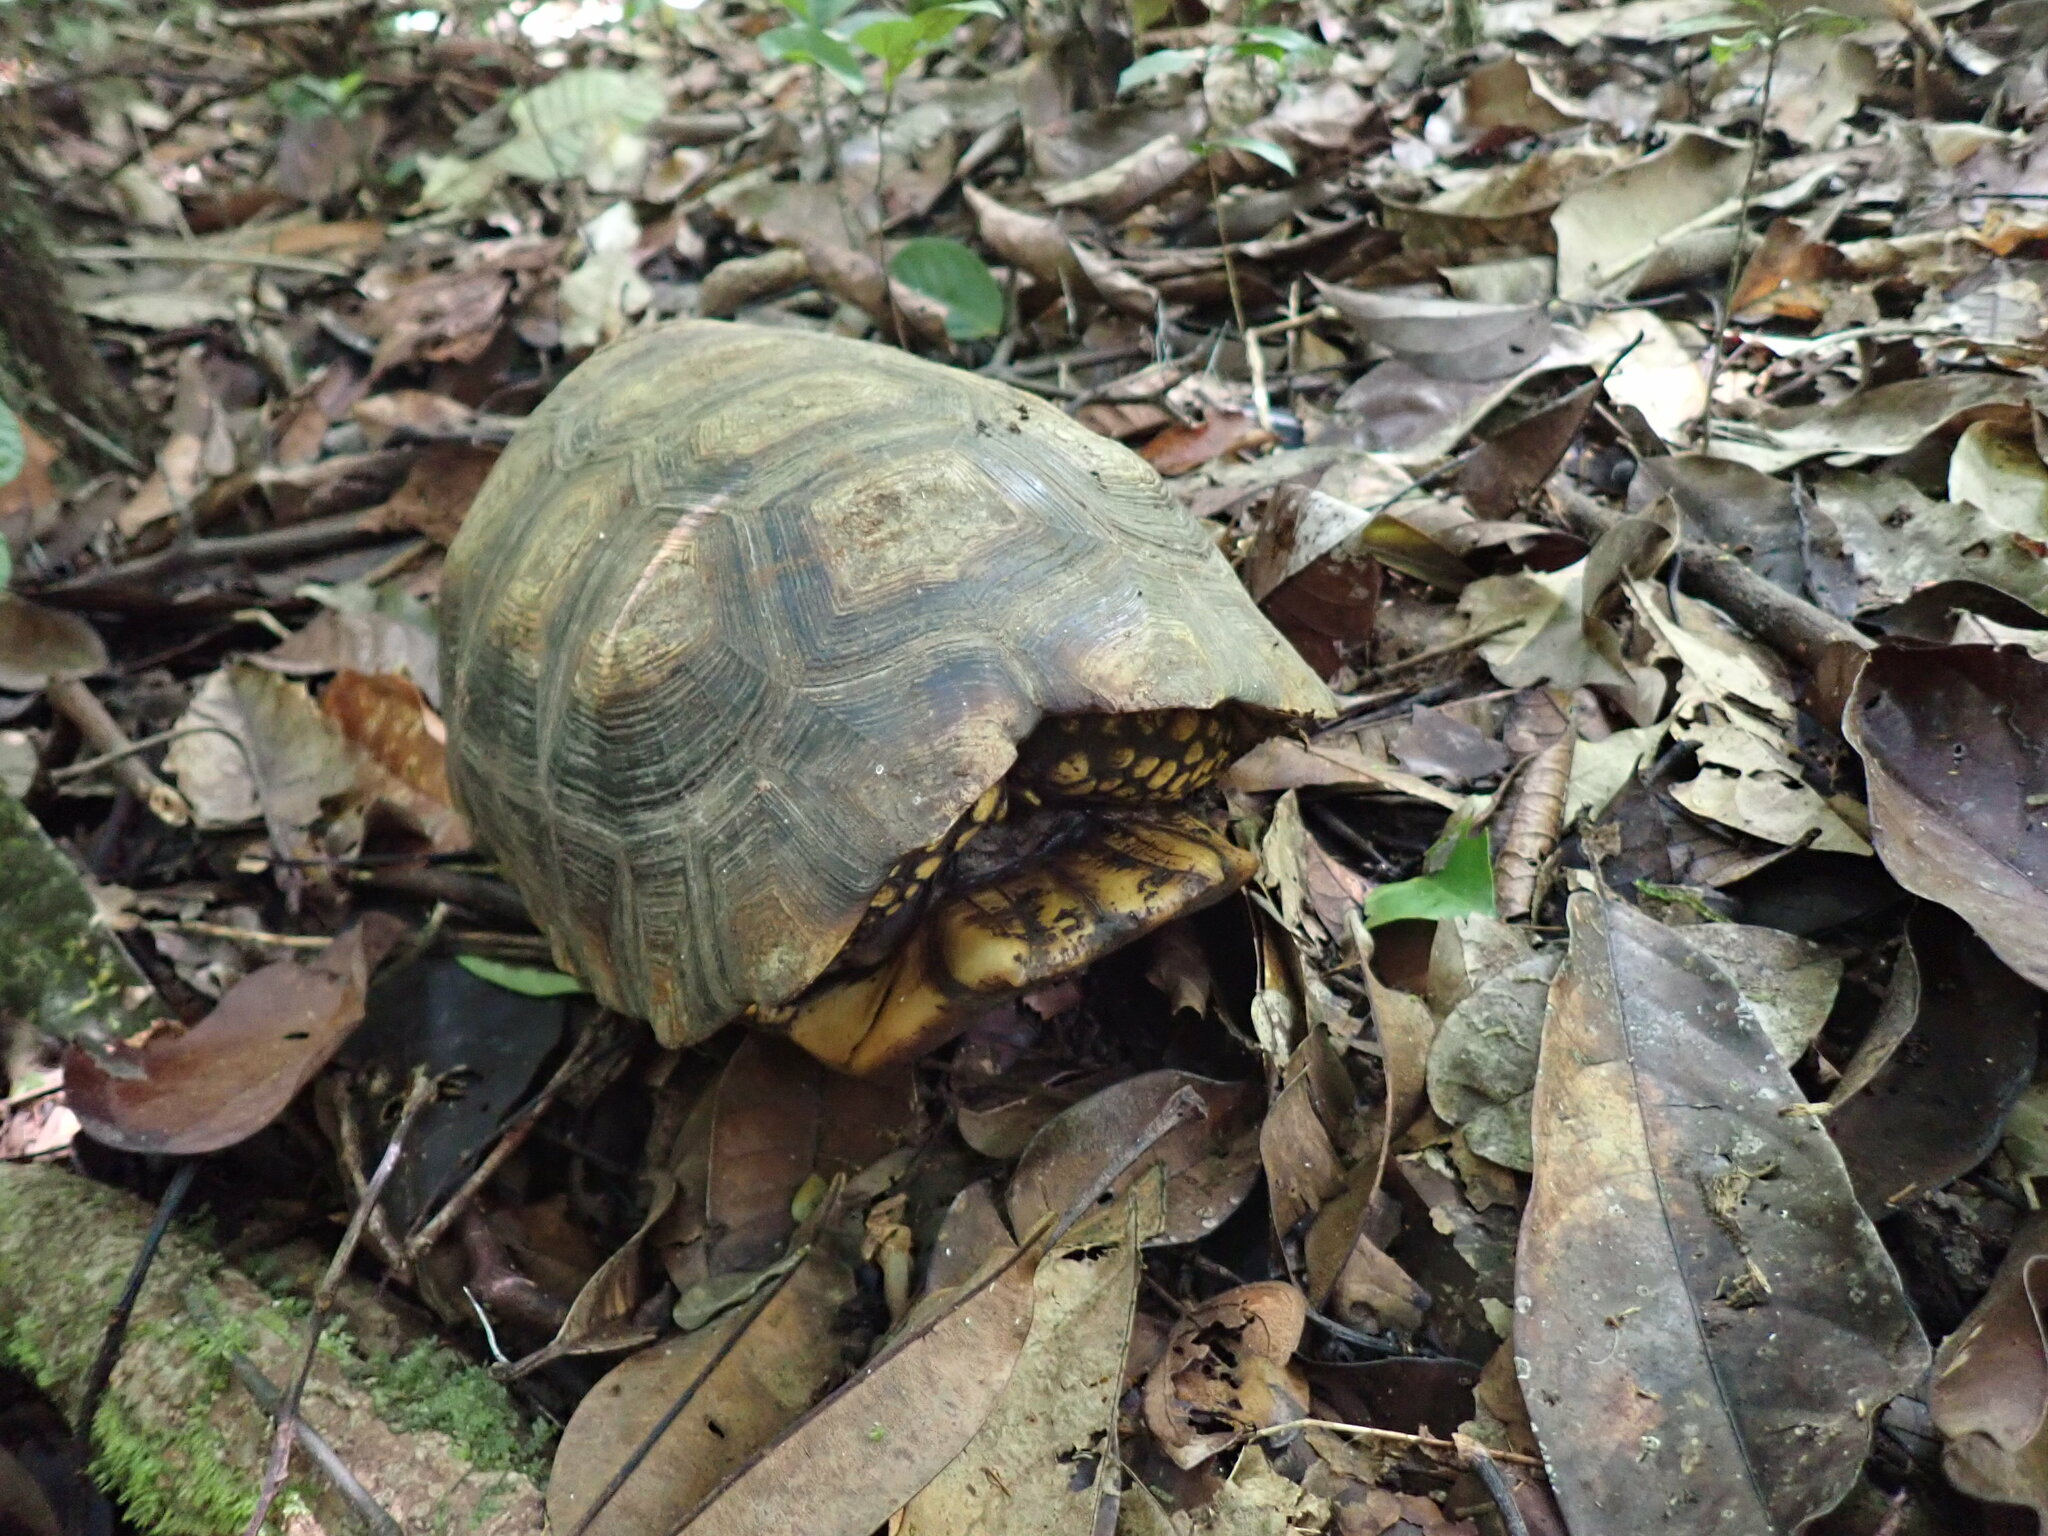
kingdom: Animalia
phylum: Chordata
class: Testudines
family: Testudinidae
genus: Chelonoidis
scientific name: Chelonoidis denticulatus
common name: Yellow-footed tortoise
